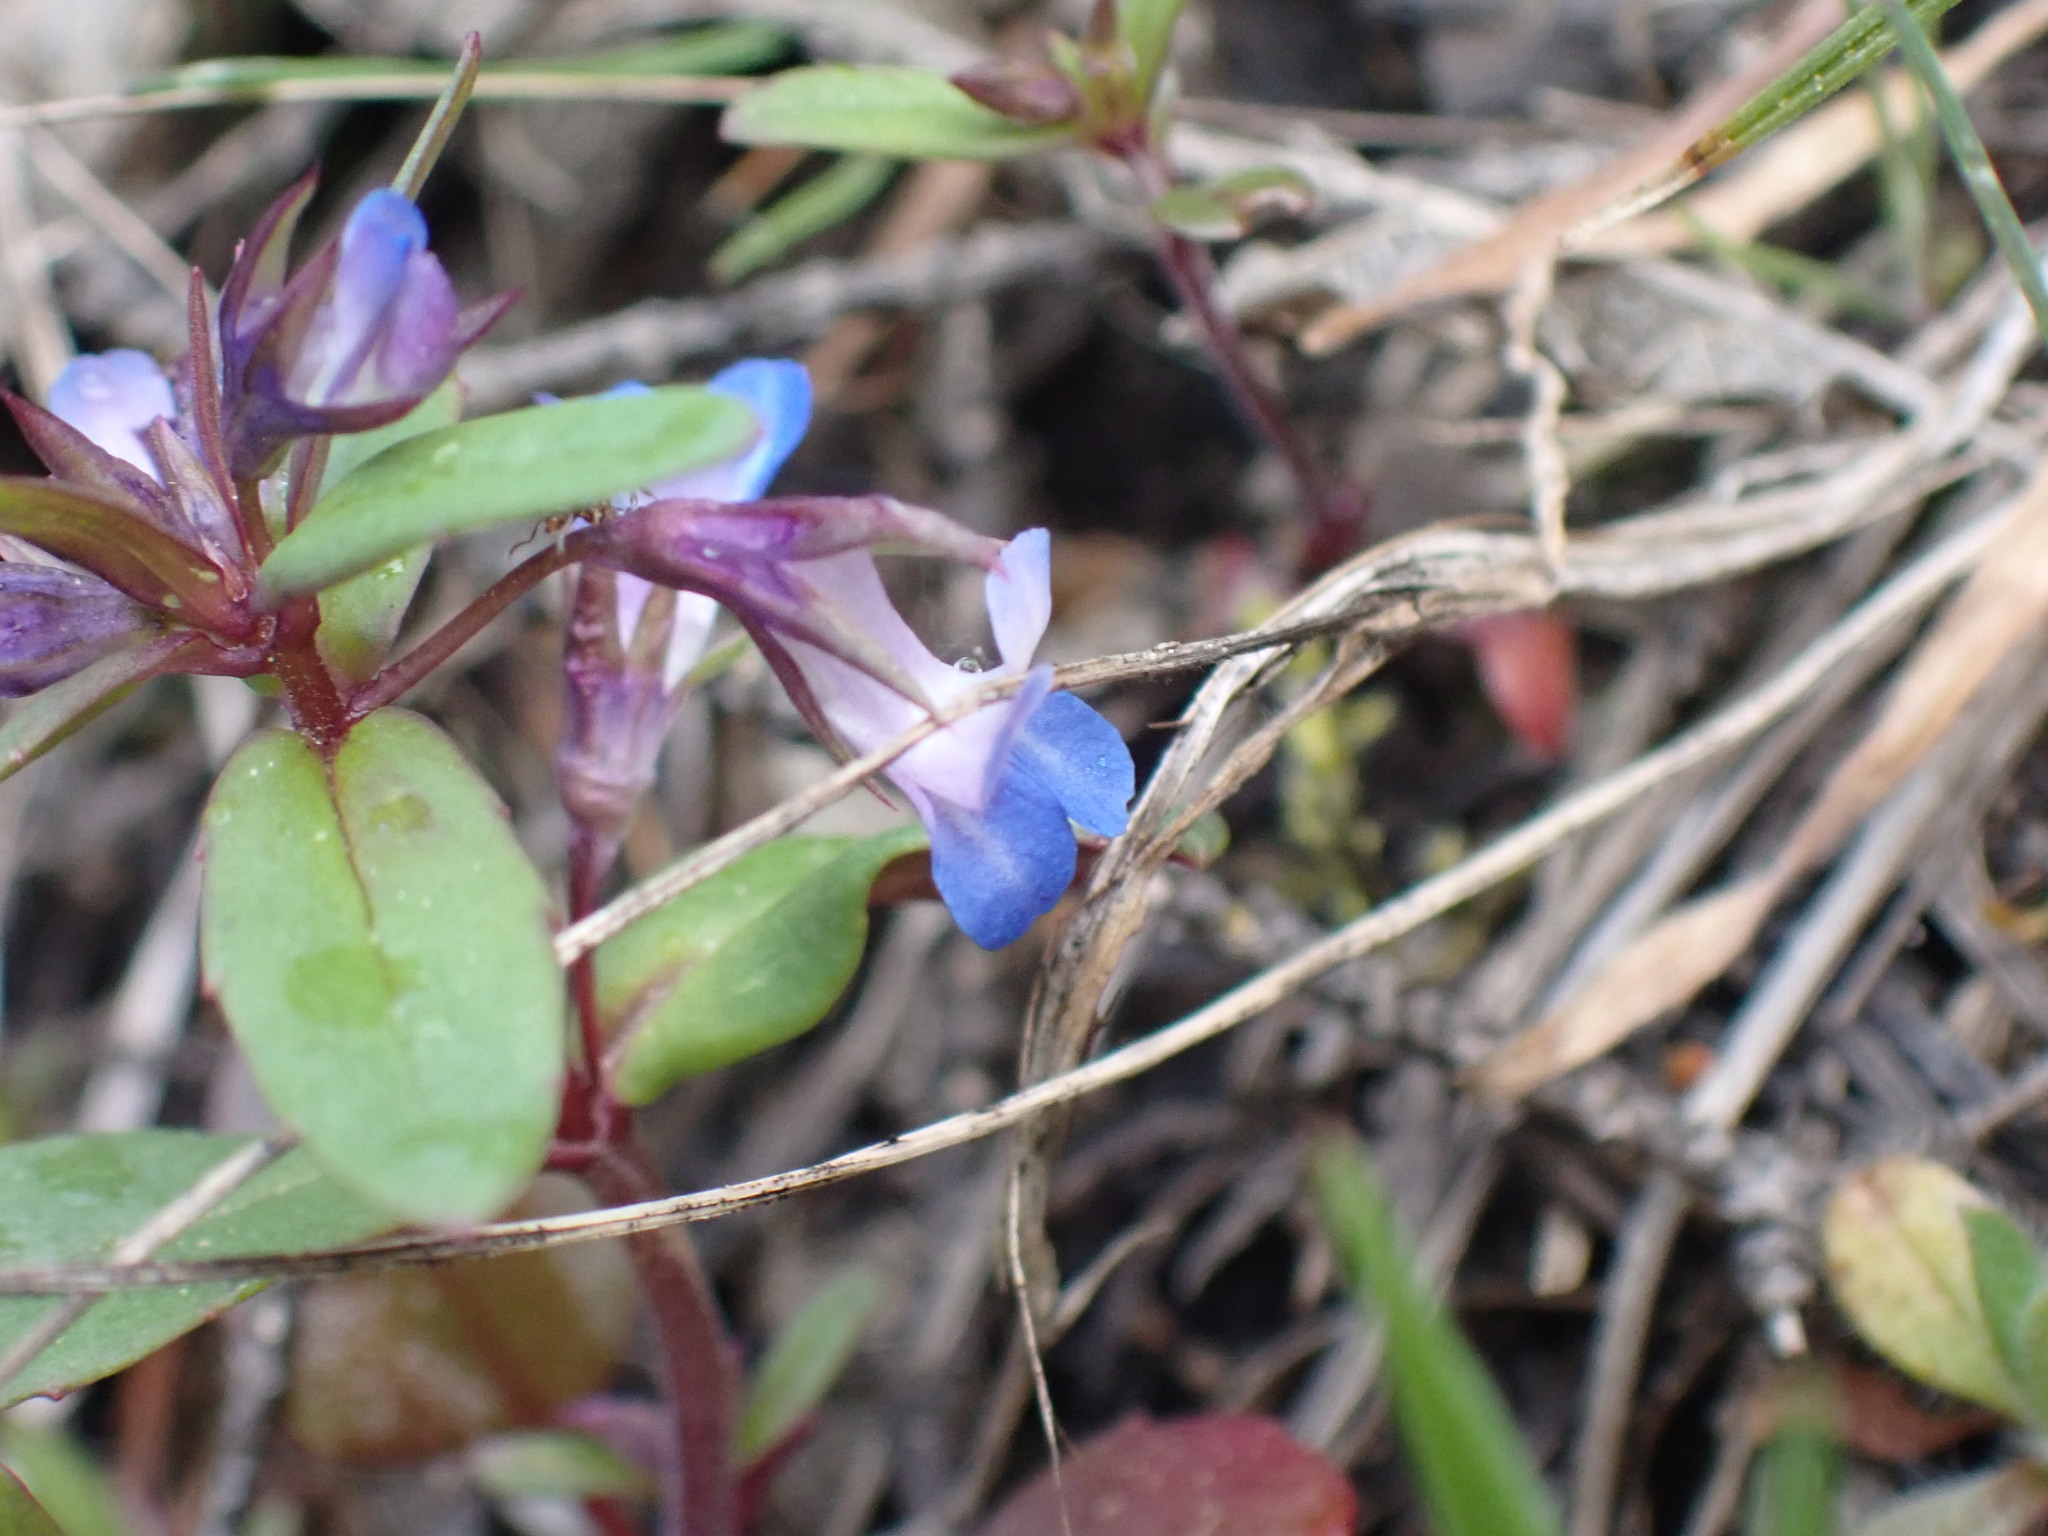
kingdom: Plantae
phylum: Tracheophyta
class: Magnoliopsida
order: Lamiales
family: Plantaginaceae
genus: Collinsia
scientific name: Collinsia parviflora
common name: Blue-lips
